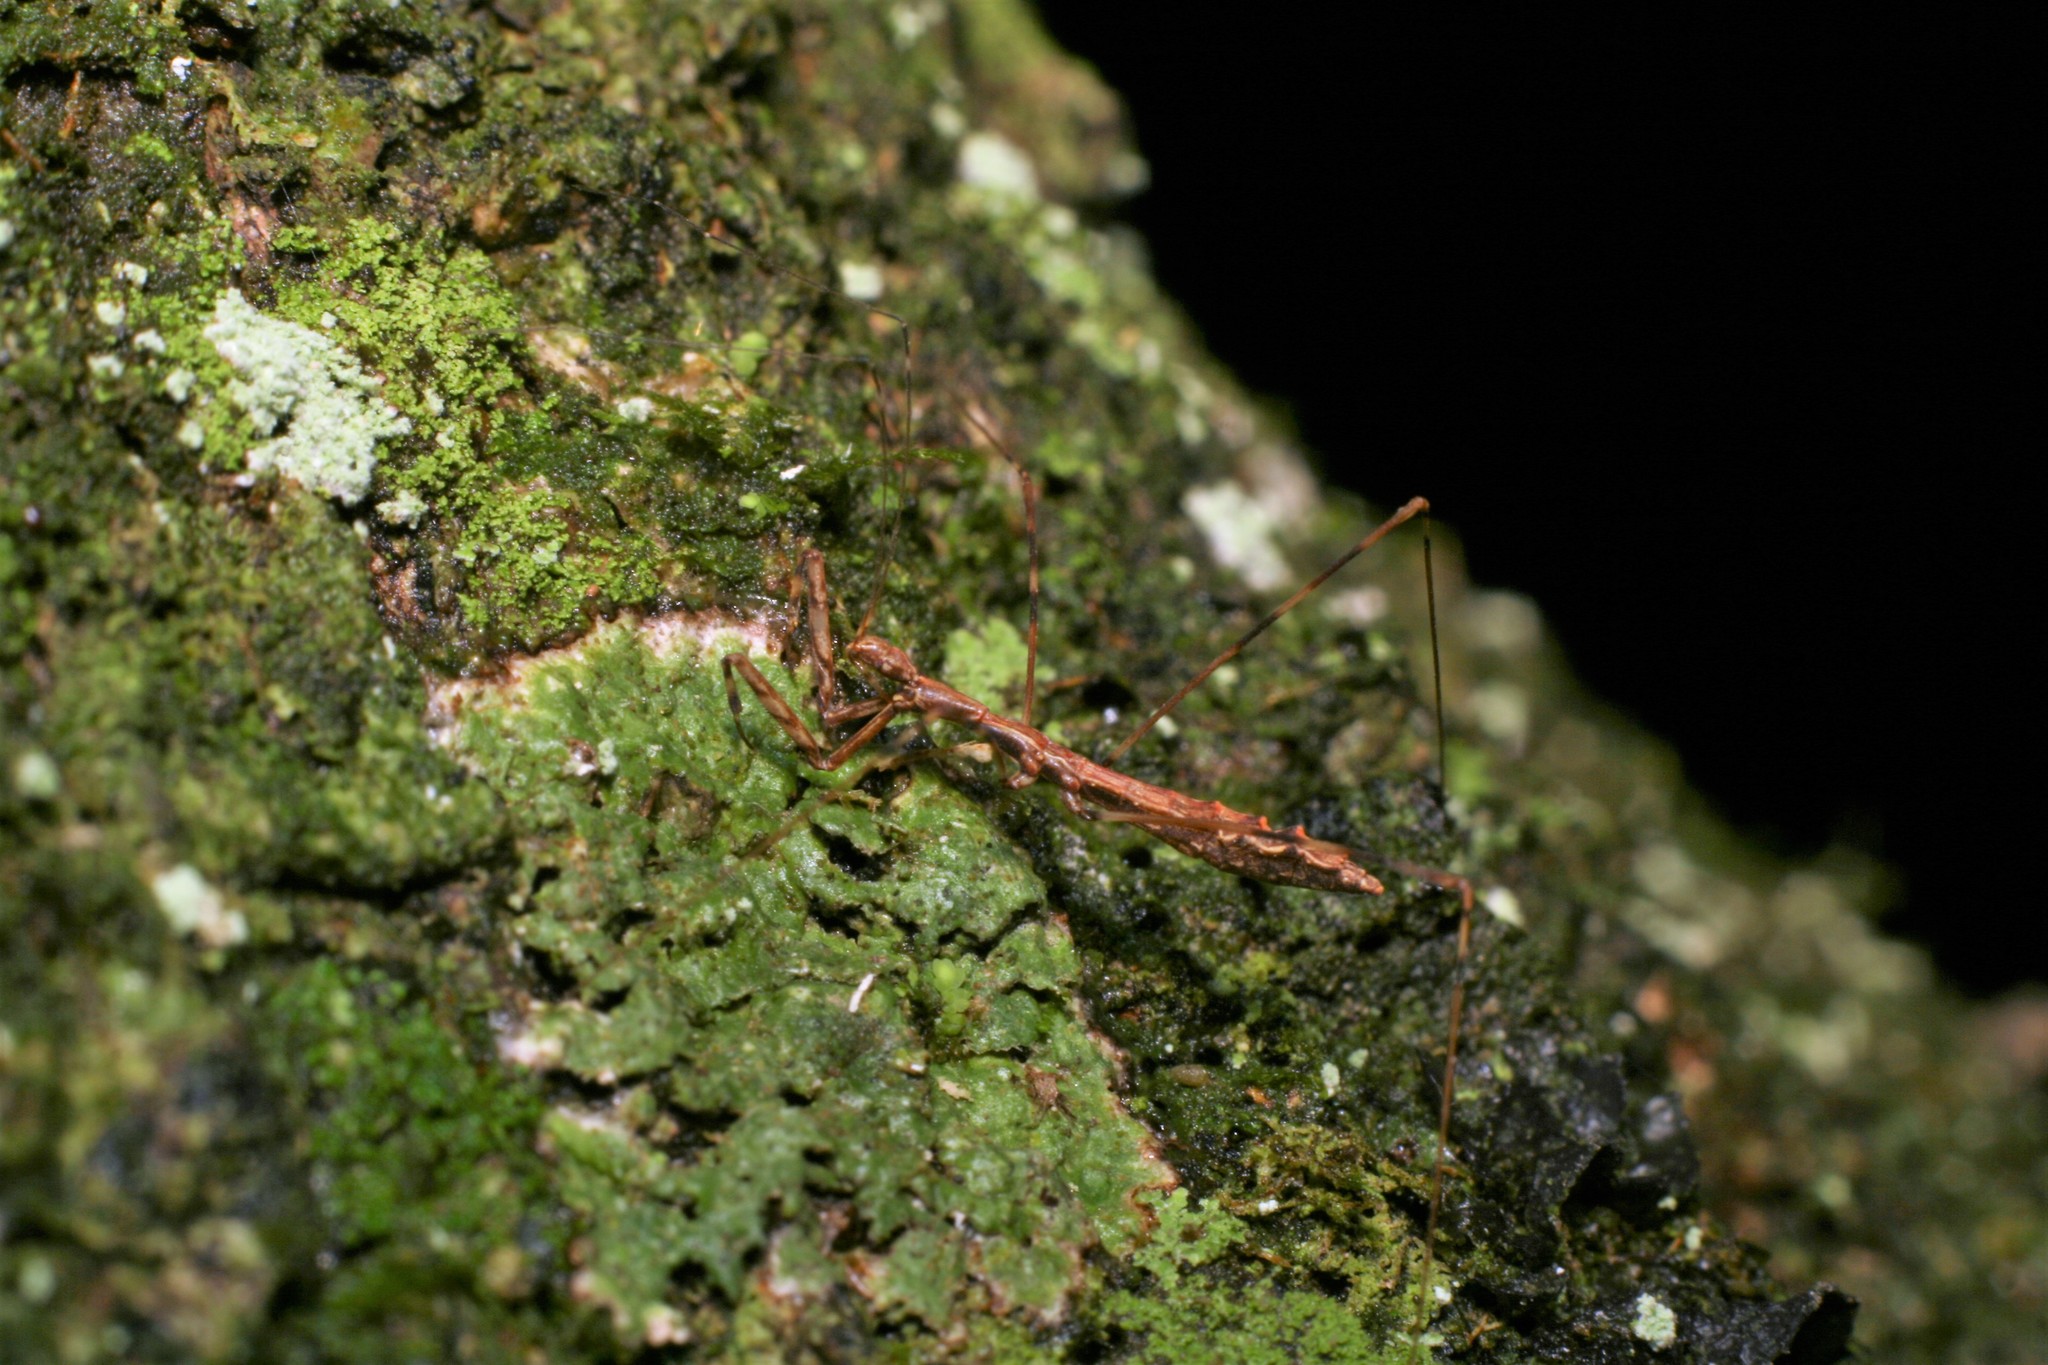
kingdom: Animalia
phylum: Arthropoda
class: Insecta
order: Hemiptera
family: Reduviidae
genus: Ploiaria
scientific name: Ploiaria antipodum
